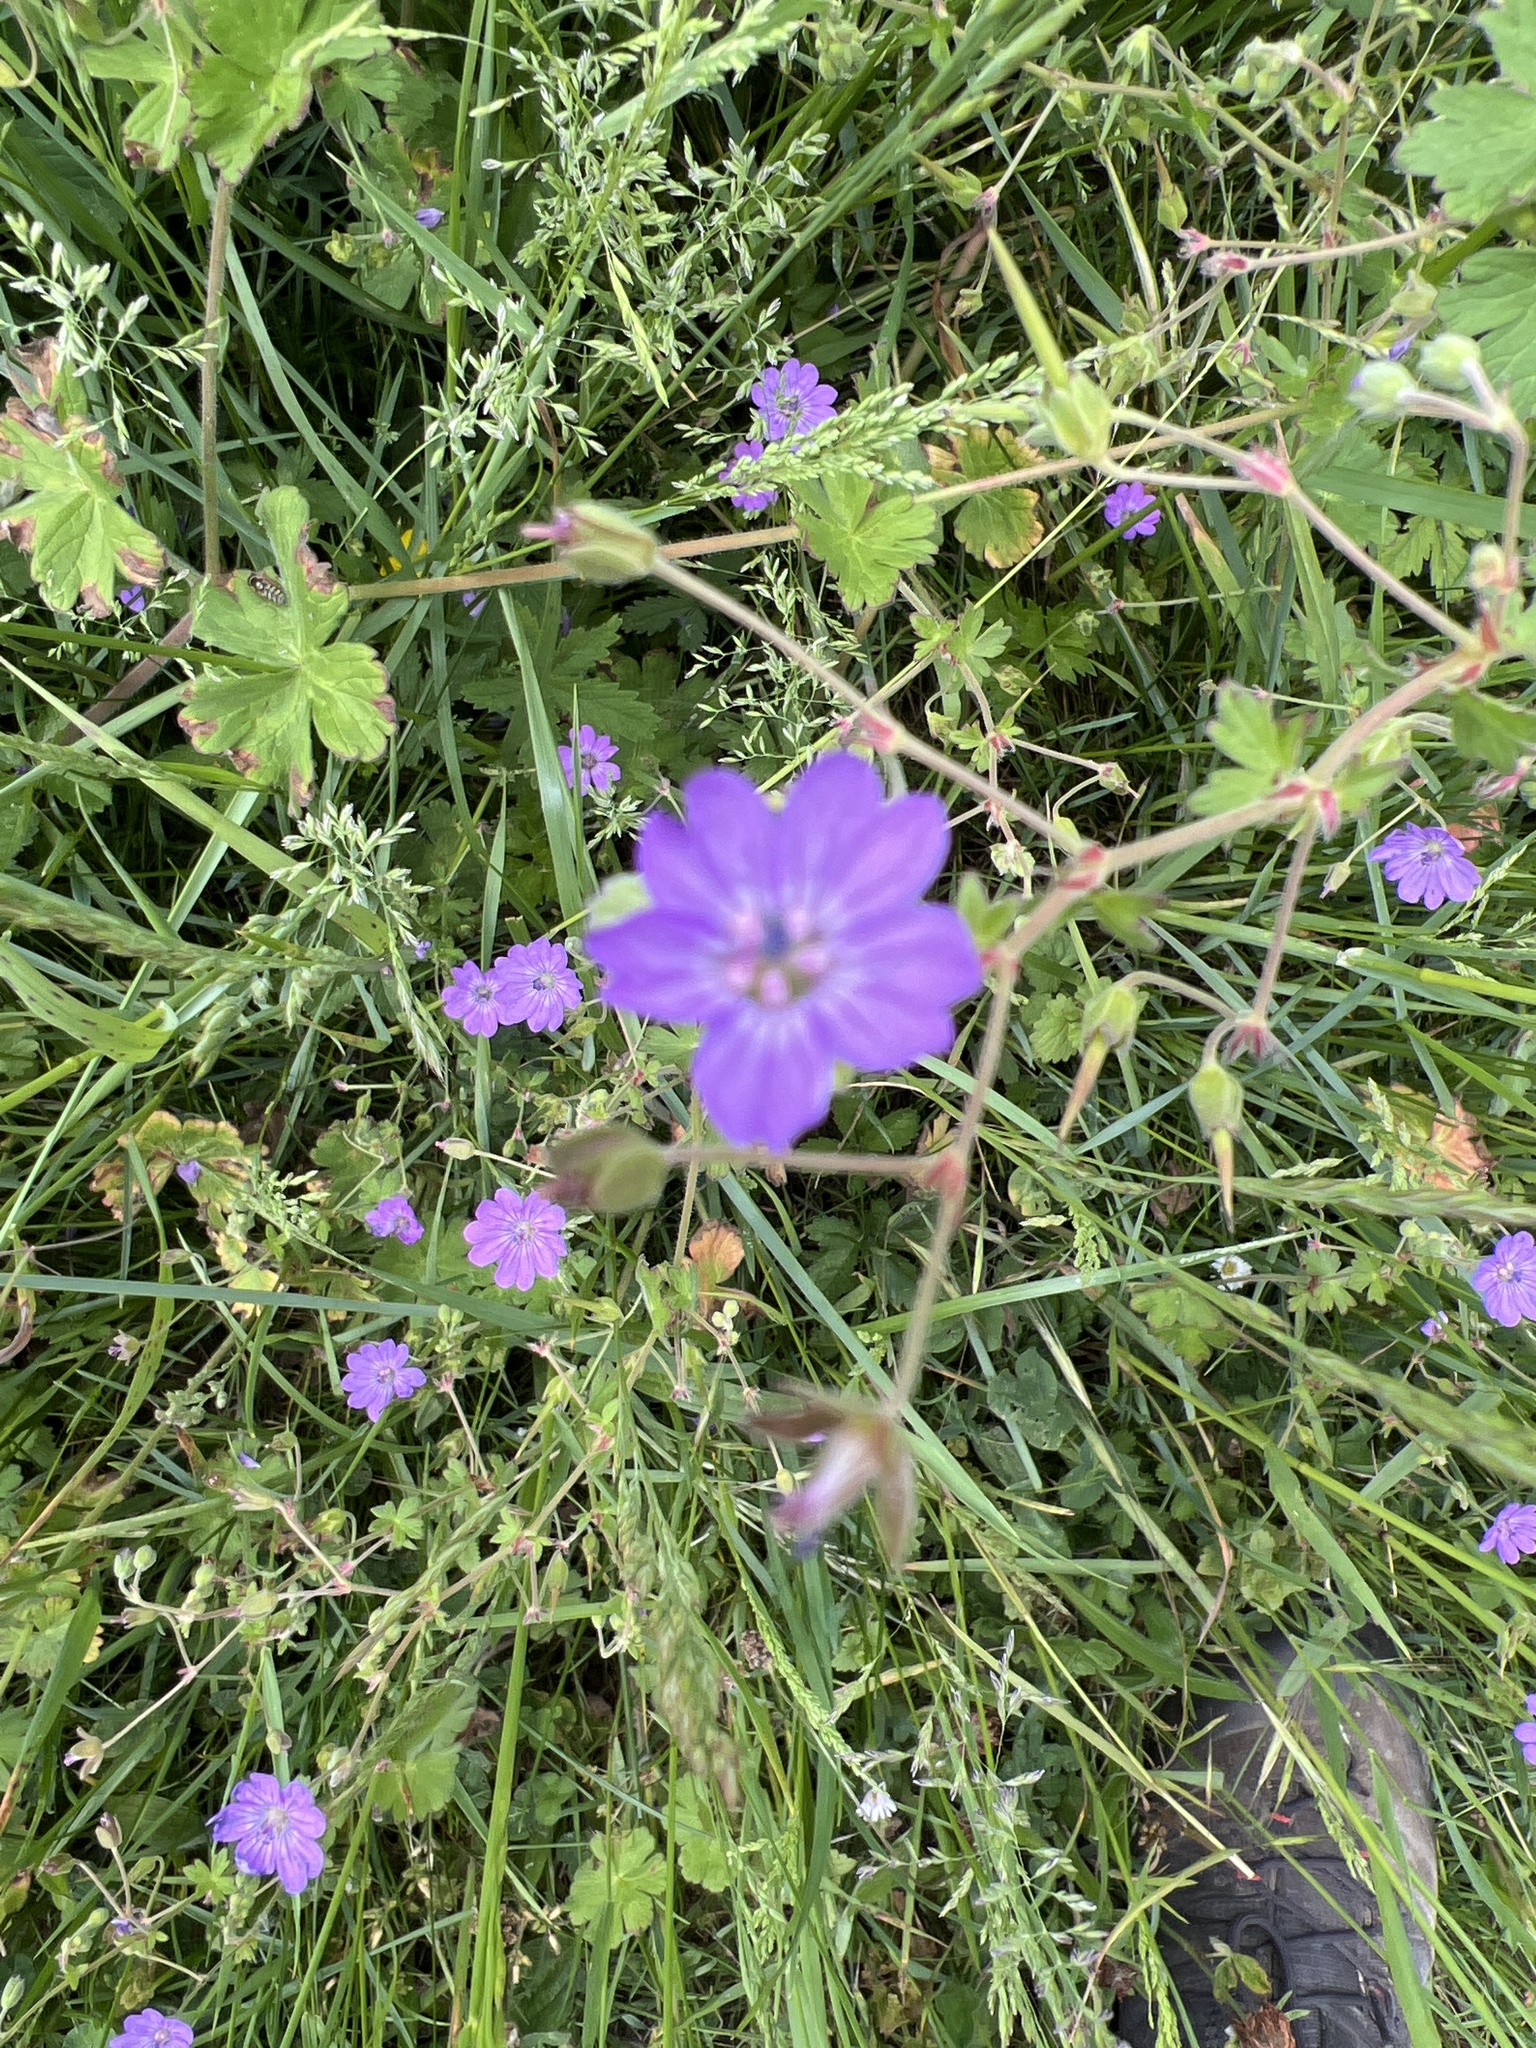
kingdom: Plantae
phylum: Tracheophyta
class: Magnoliopsida
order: Geraniales
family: Geraniaceae
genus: Geranium
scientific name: Geranium pyrenaicum
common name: Hedgerow crane's-bill
